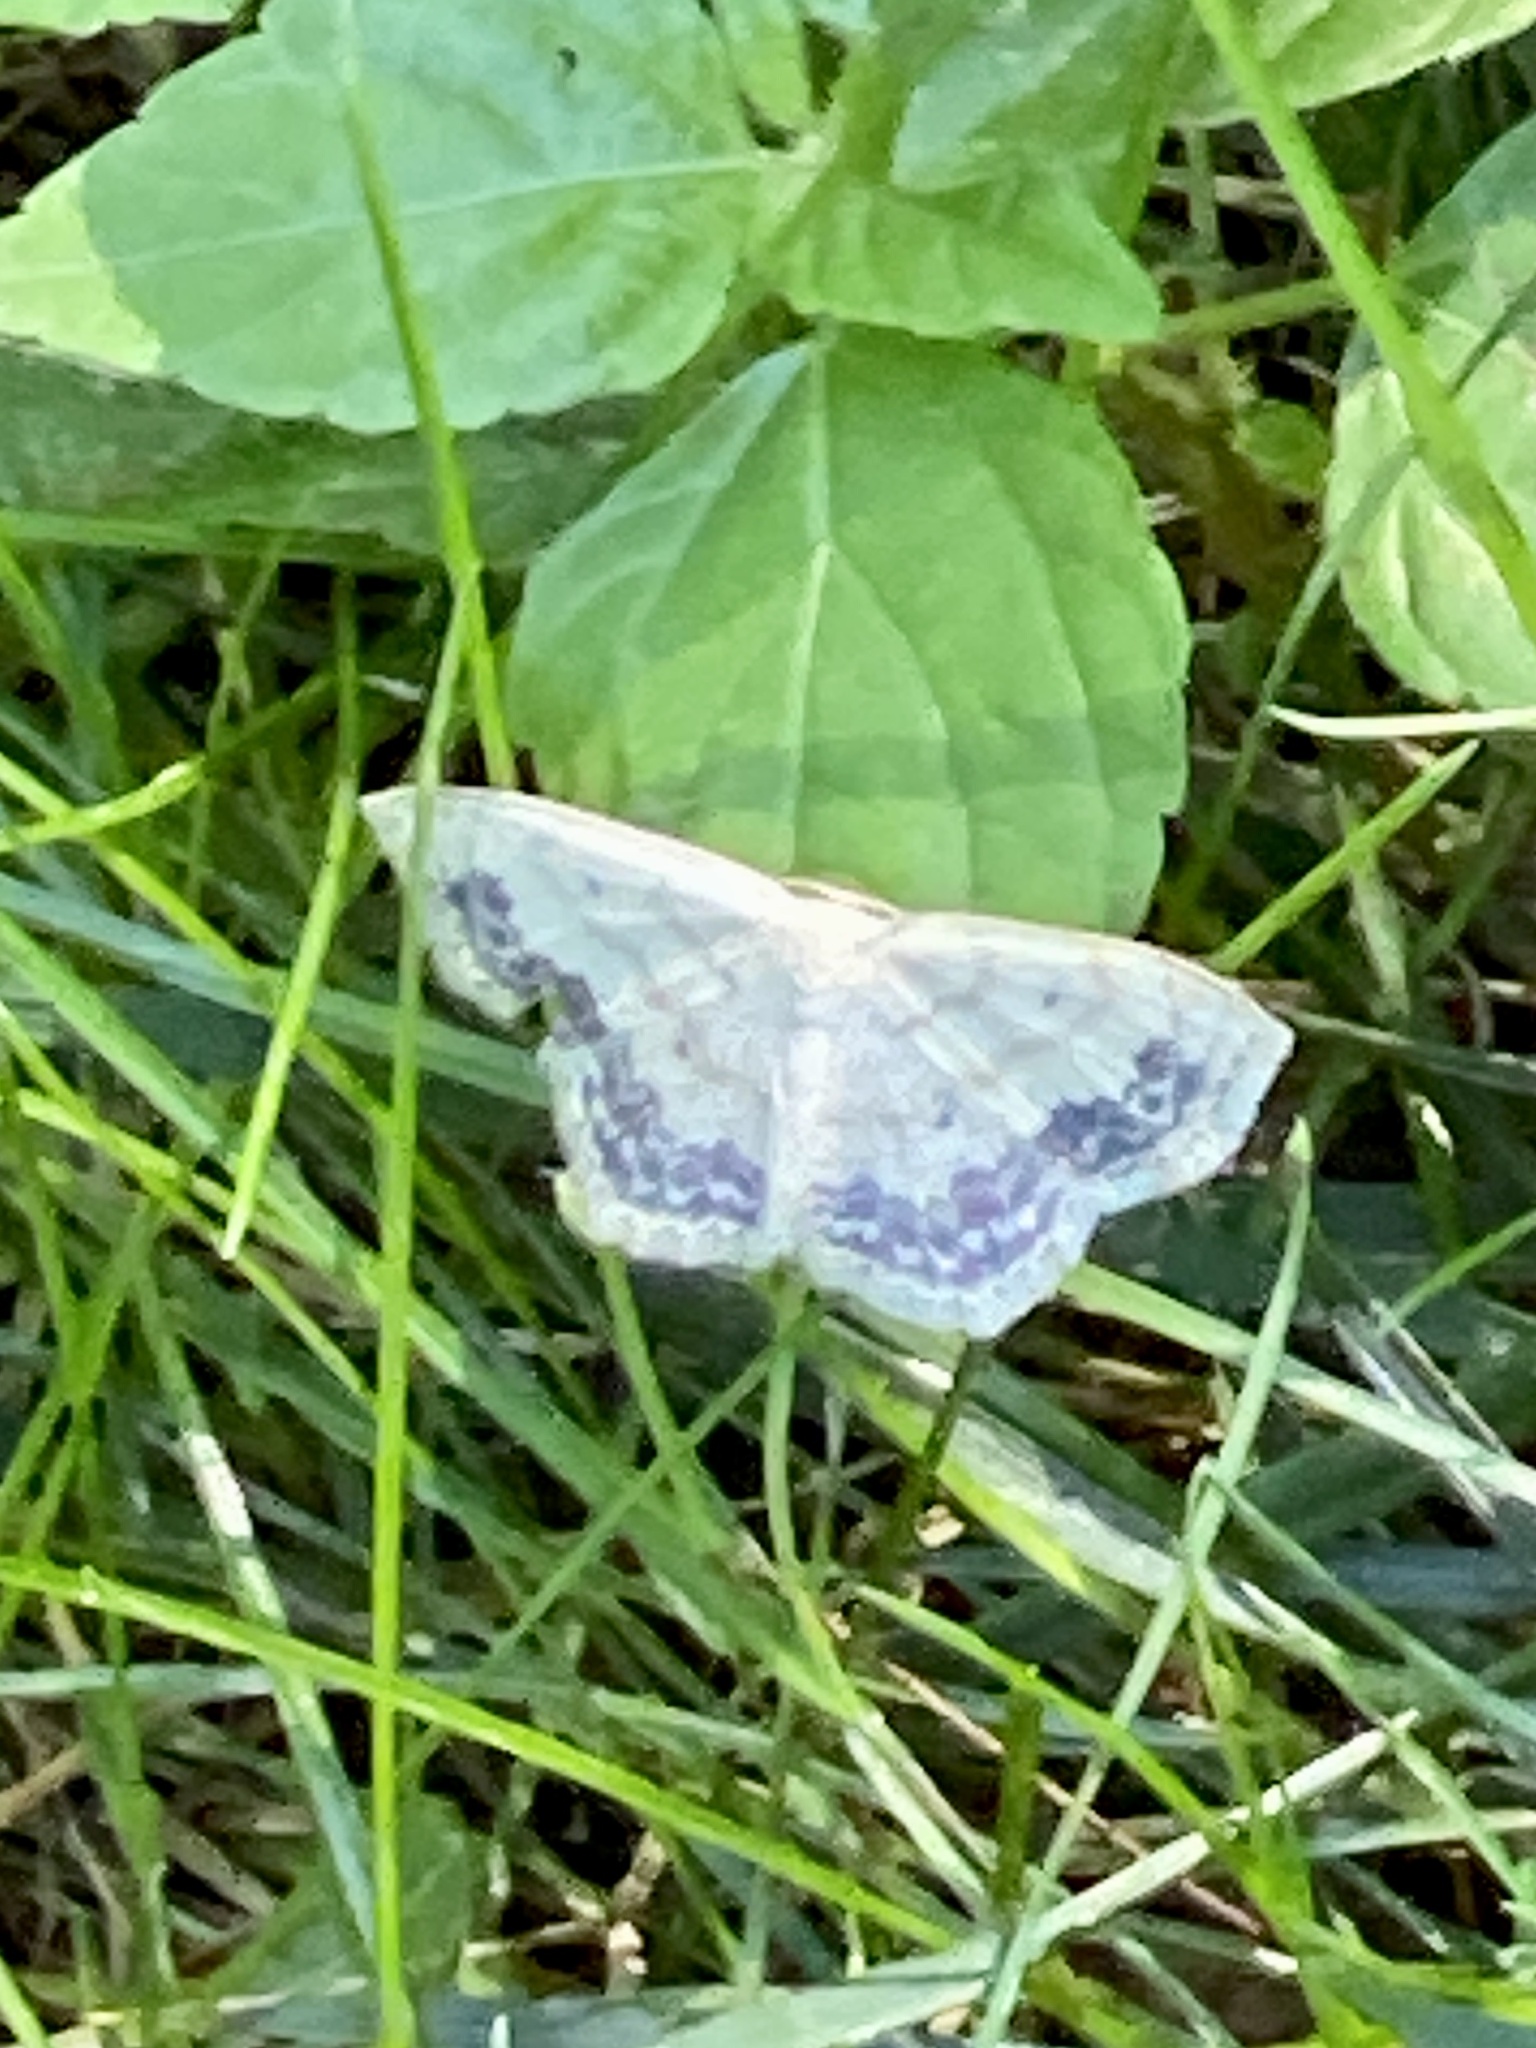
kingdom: Animalia
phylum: Arthropoda
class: Insecta
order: Lepidoptera
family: Geometridae
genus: Scopula
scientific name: Scopula limboundata
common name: Large lace border
